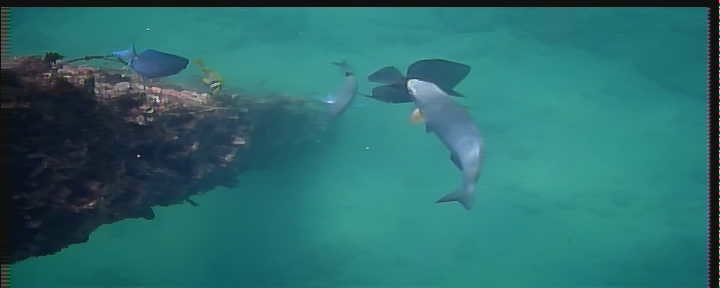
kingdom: Animalia
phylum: Chordata
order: Perciformes
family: Haemulidae
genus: Anisotremus
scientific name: Anisotremus virginicus
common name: Porkfish
